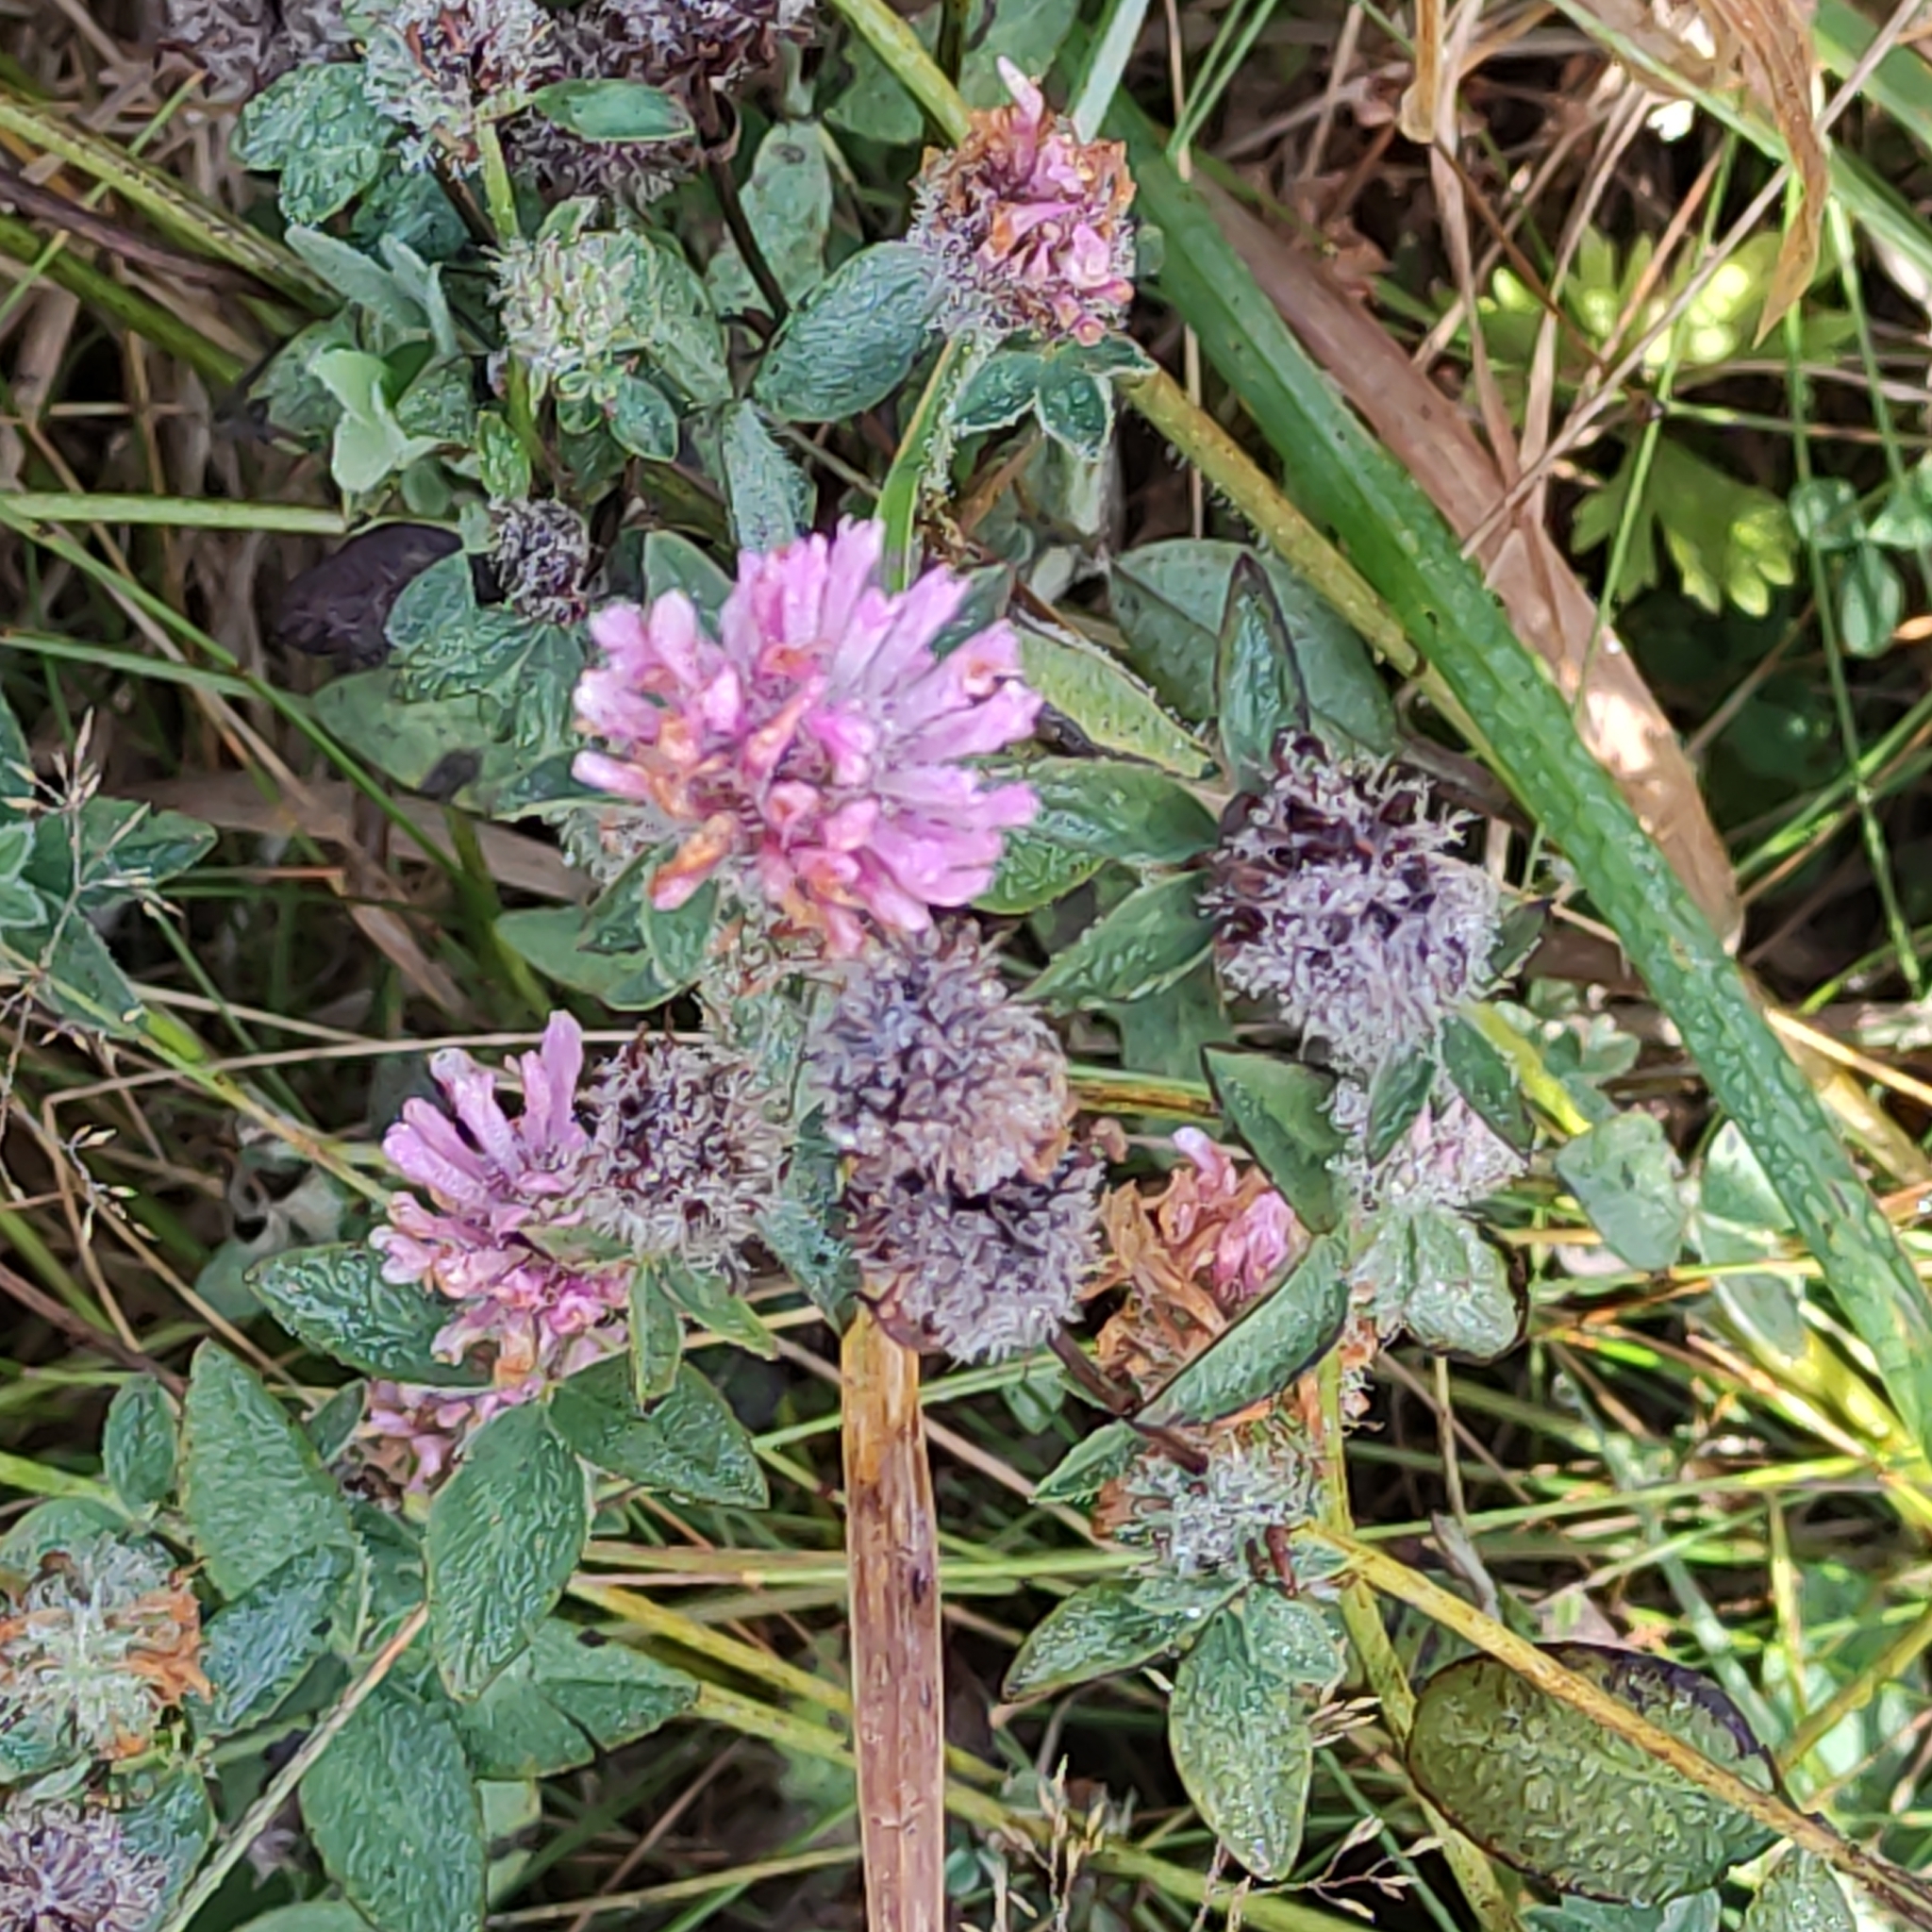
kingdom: Plantae
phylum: Tracheophyta
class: Magnoliopsida
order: Fabales
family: Fabaceae
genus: Trifolium
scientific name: Trifolium pratense
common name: Red clover
